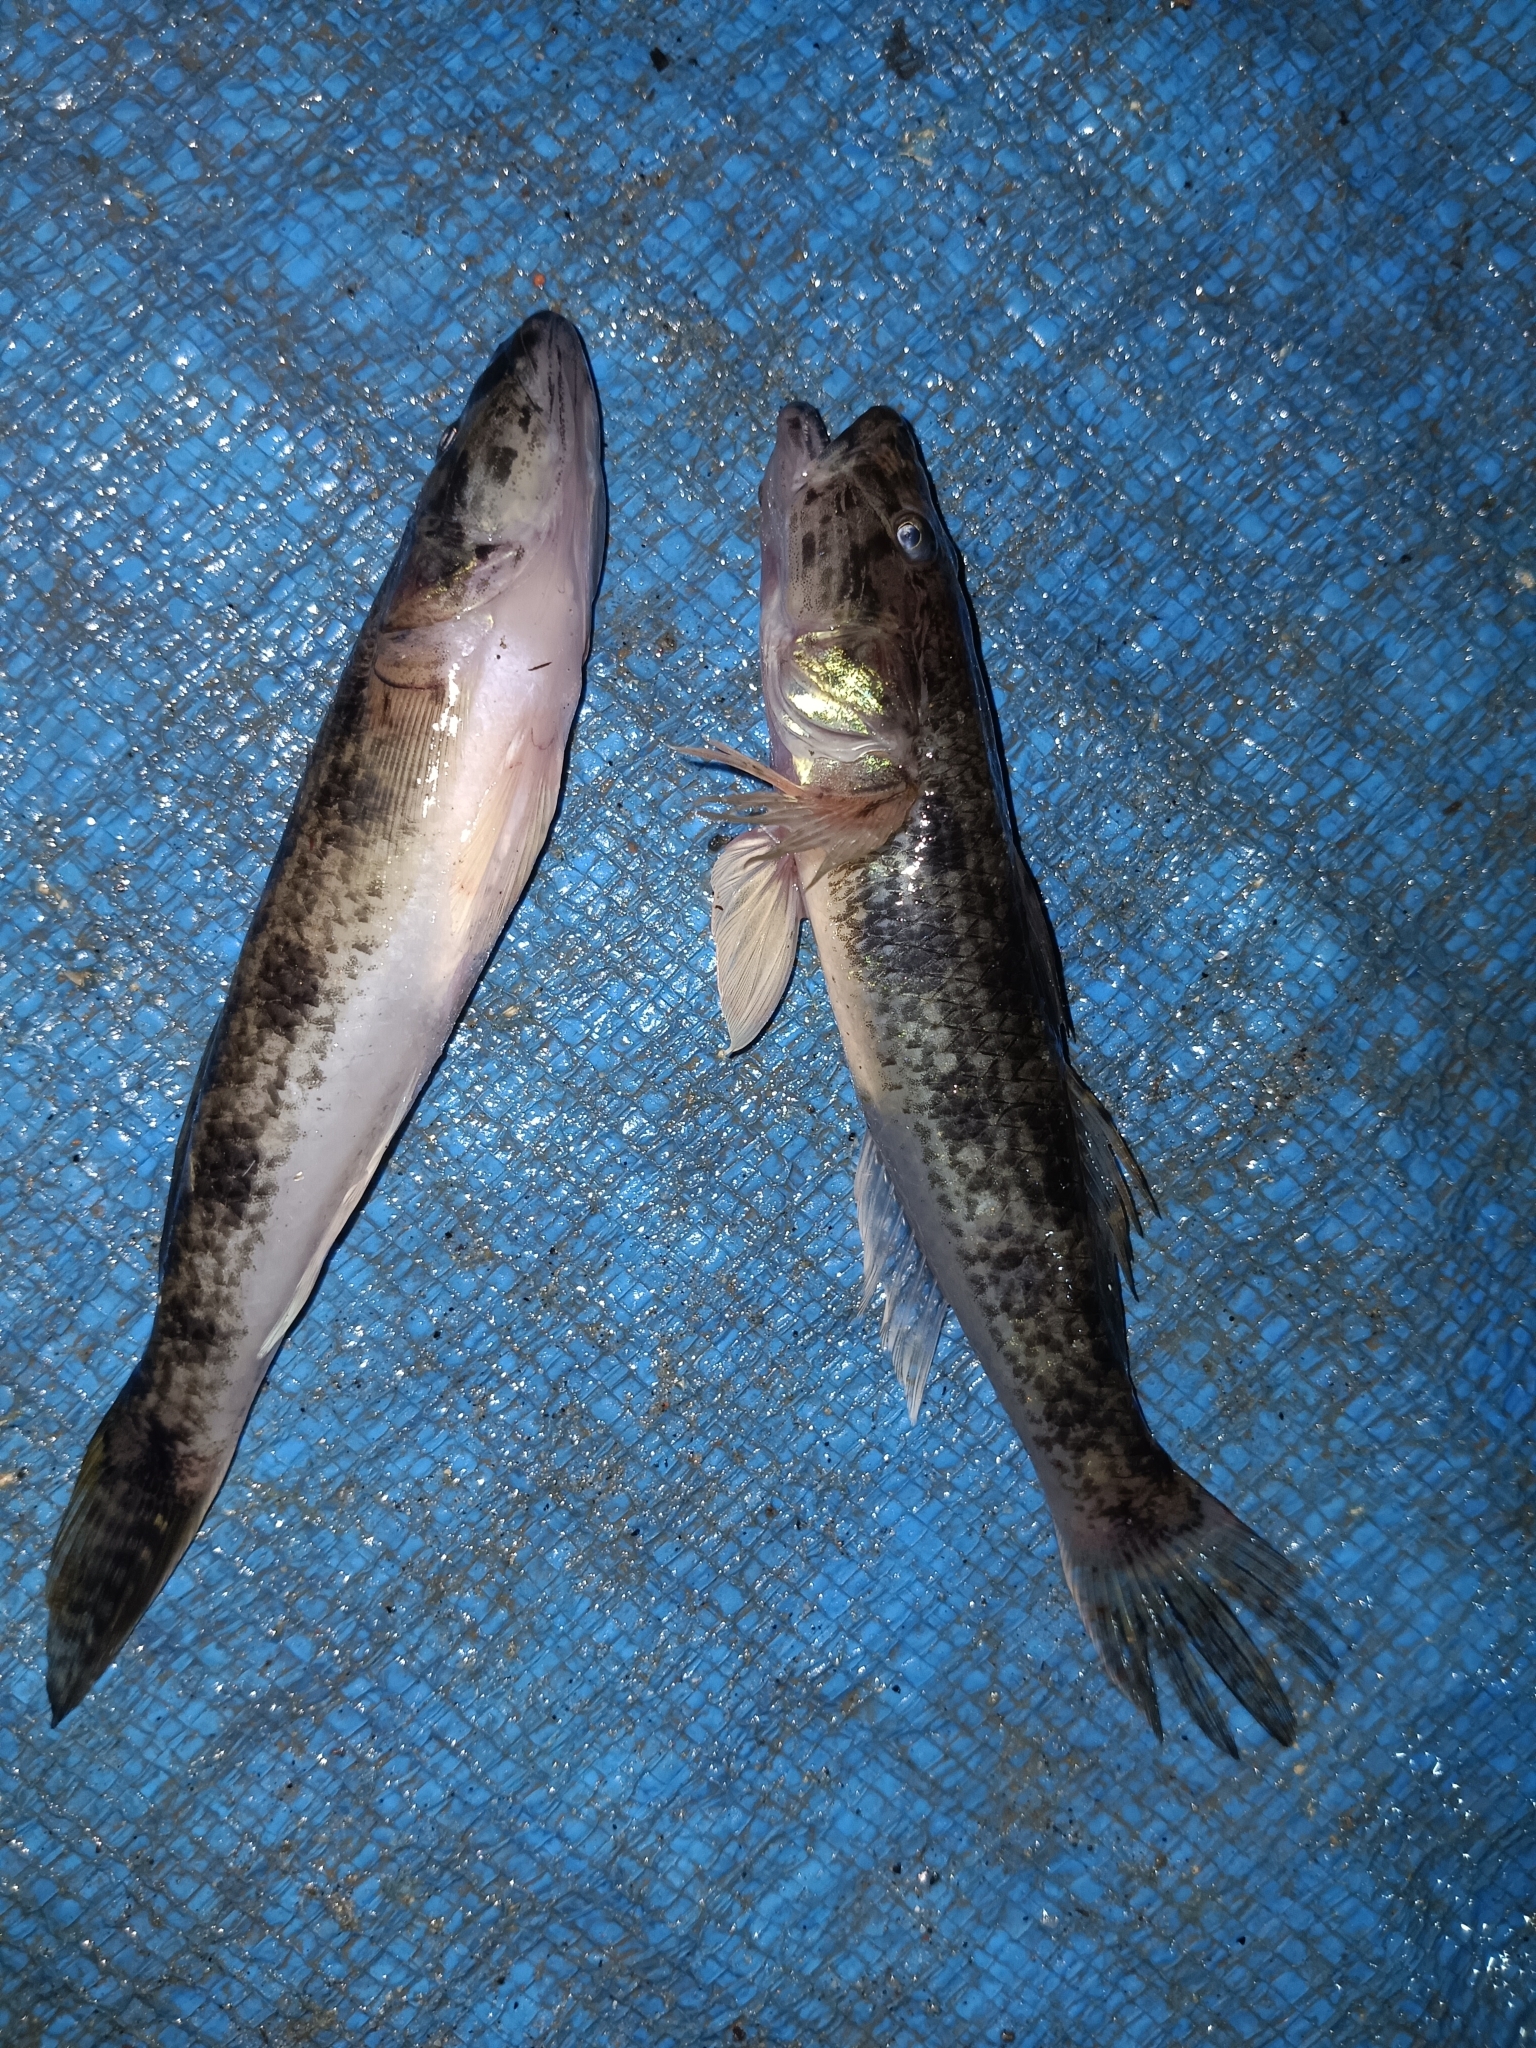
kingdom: Animalia
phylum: Chordata
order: Perciformes
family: Gobiidae
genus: Glossogobius
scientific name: Glossogobius giuris
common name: Tank goby
